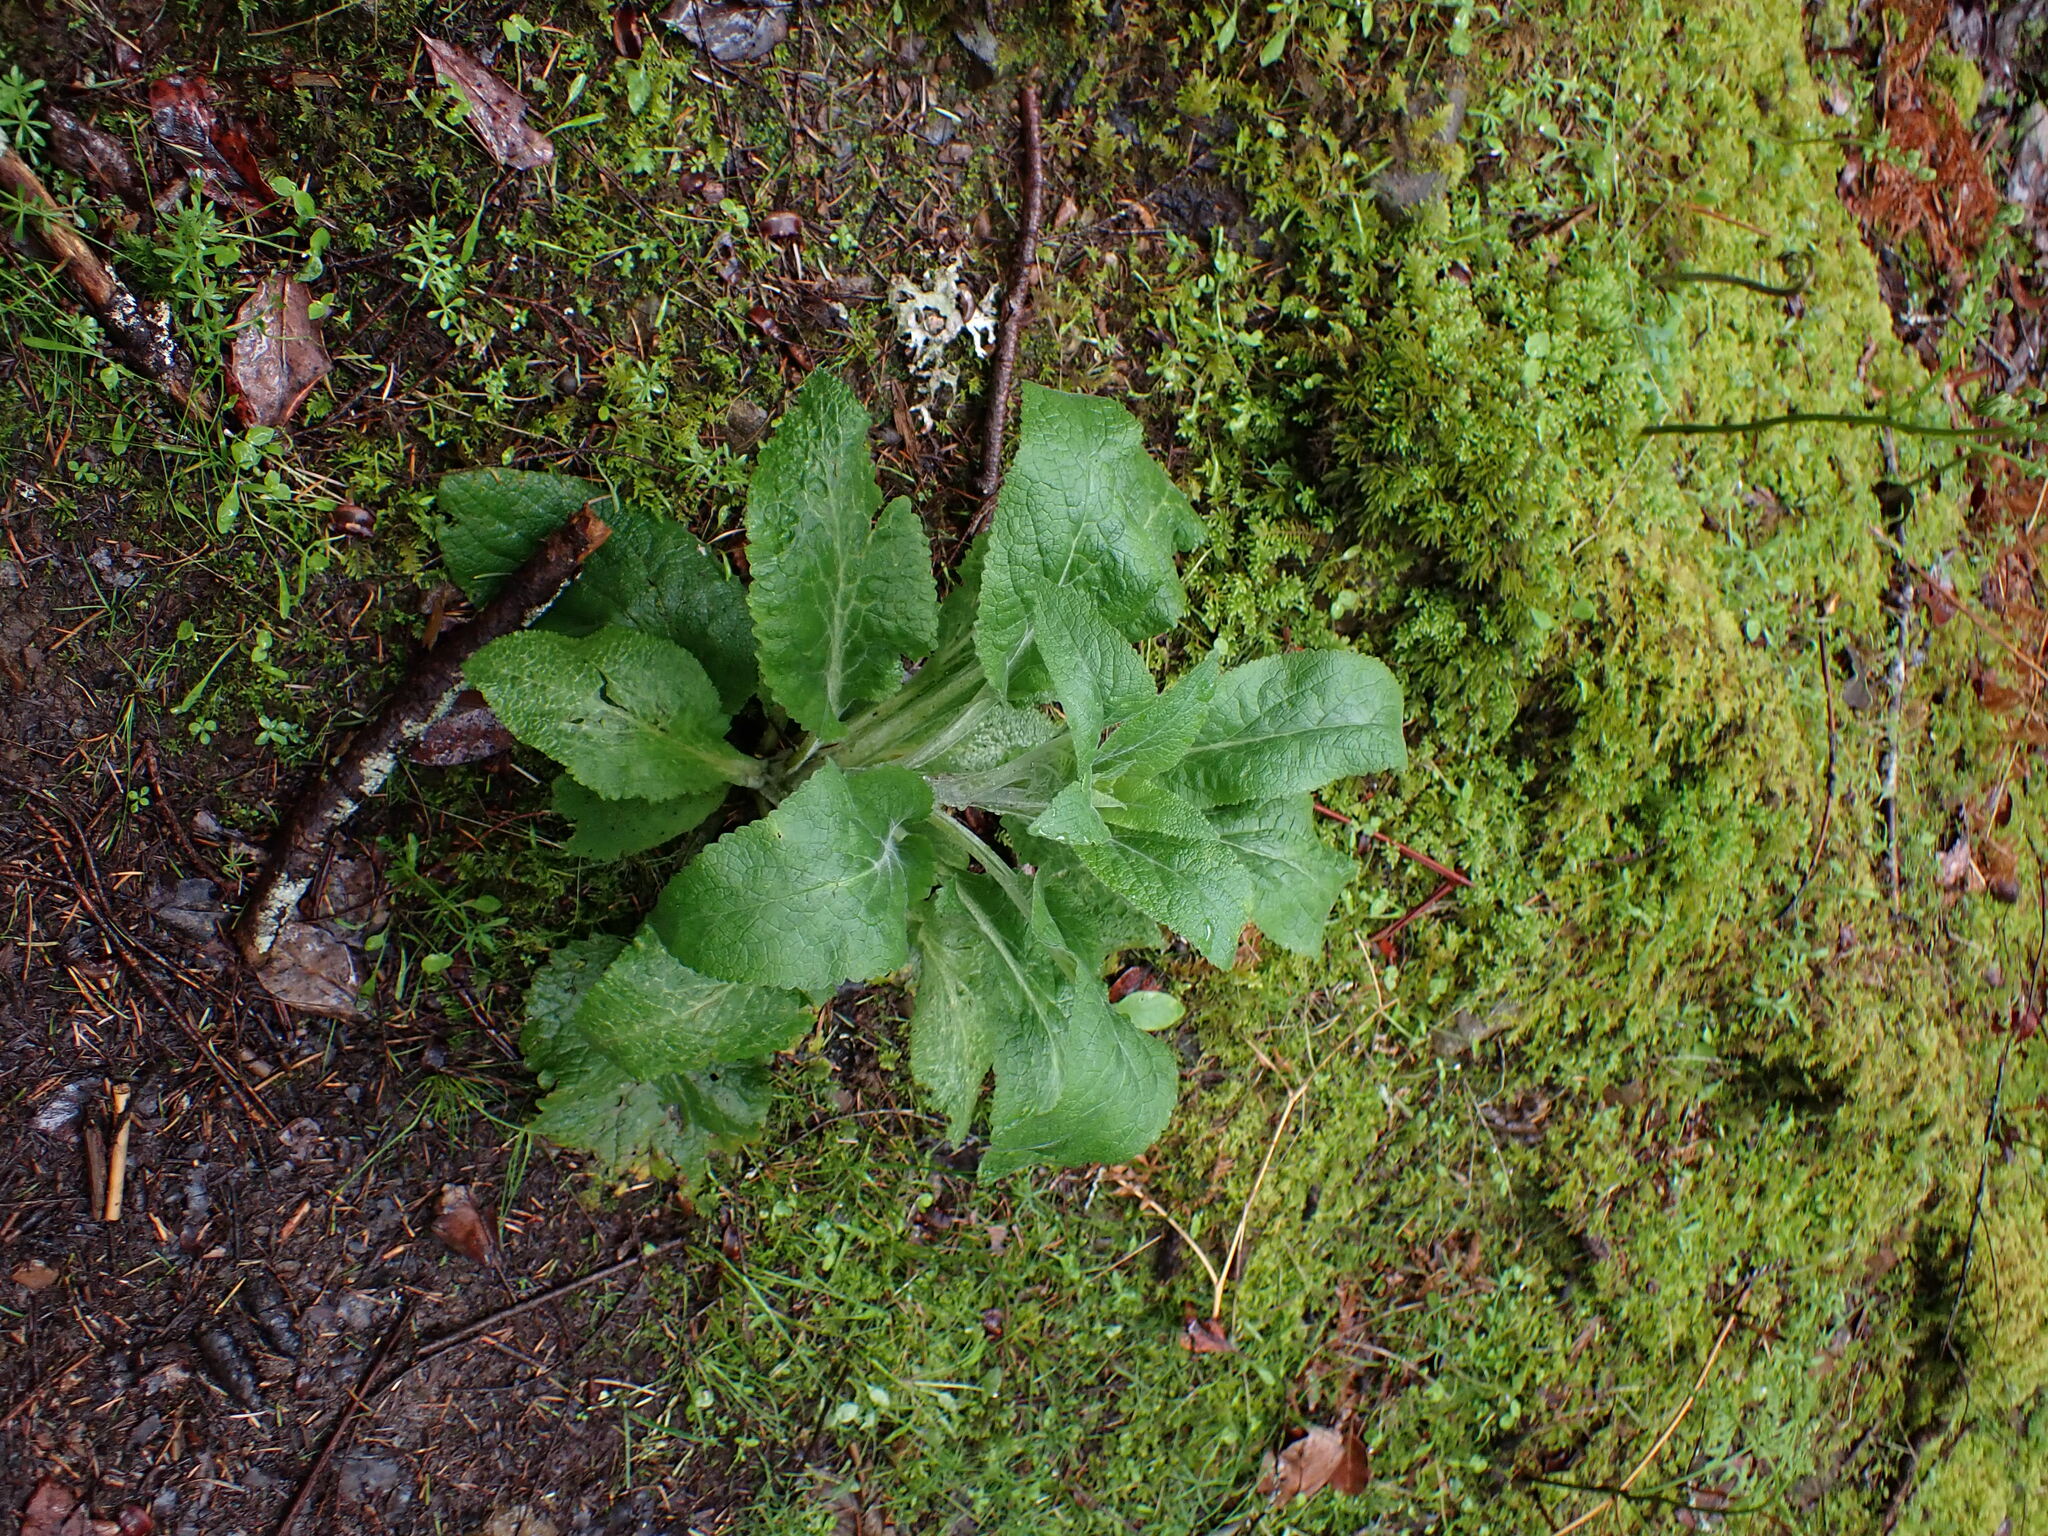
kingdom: Plantae
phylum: Tracheophyta
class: Magnoliopsida
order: Lamiales
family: Plantaginaceae
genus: Digitalis
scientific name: Digitalis purpurea
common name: Foxglove
